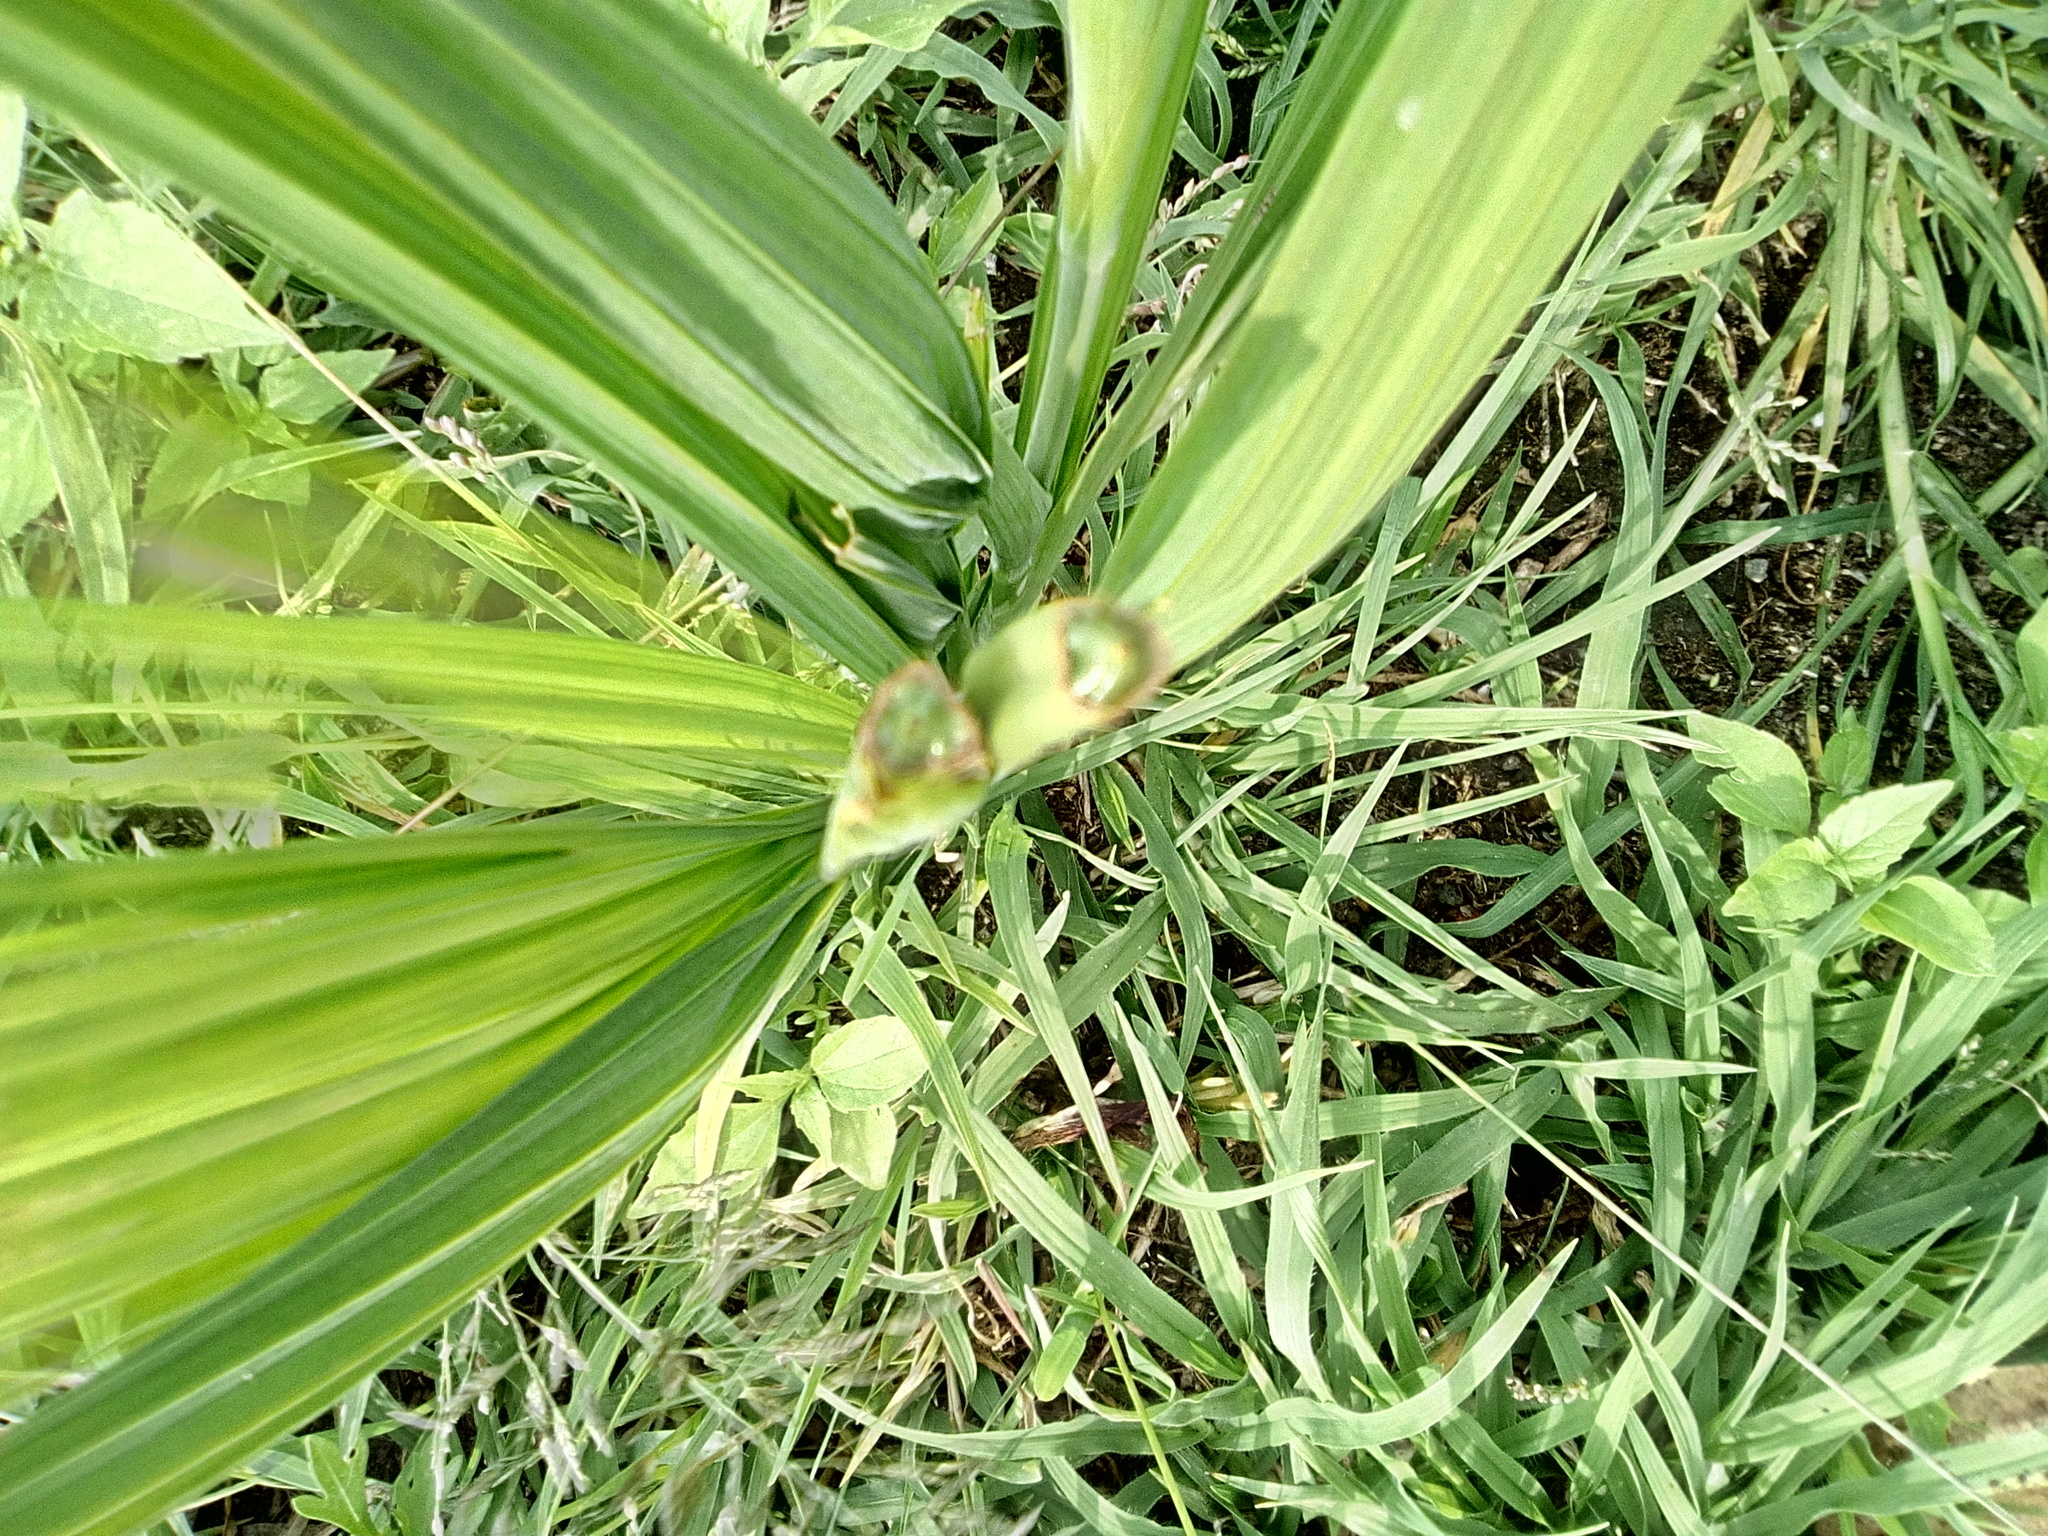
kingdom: Plantae
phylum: Tracheophyta
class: Liliopsida
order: Asparagales
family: Iridaceae
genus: Tigridia
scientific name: Tigridia pavonia
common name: Peacock-flower
